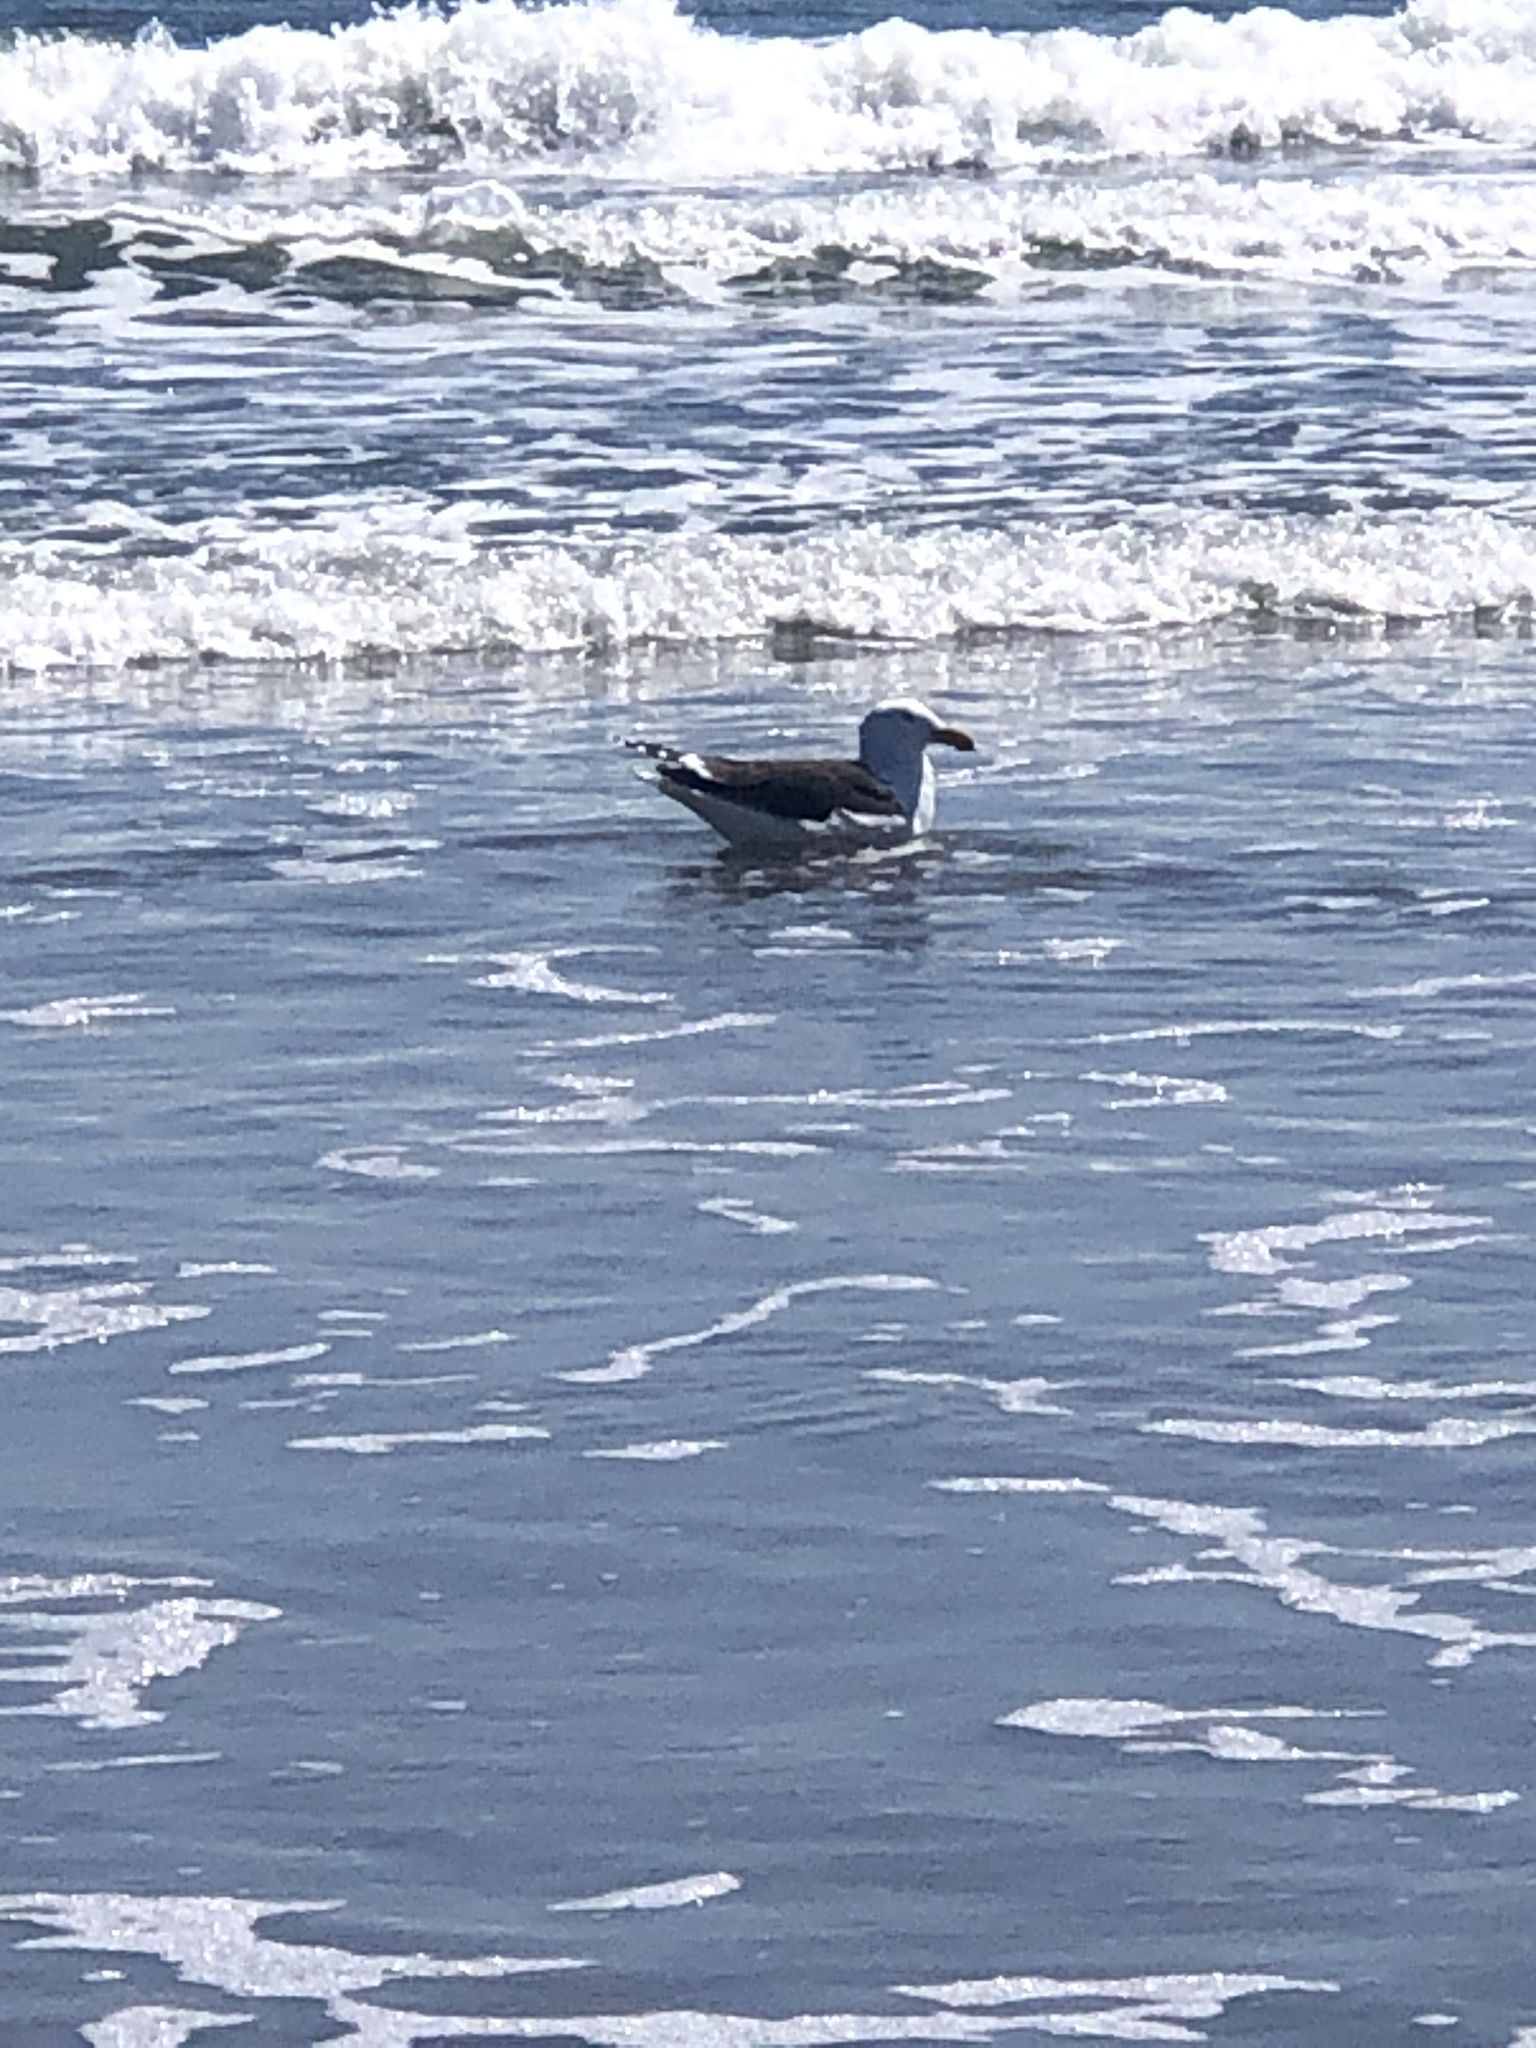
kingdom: Animalia
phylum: Chordata
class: Aves
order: Charadriiformes
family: Laridae
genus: Larus
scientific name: Larus marinus
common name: Great black-backed gull
